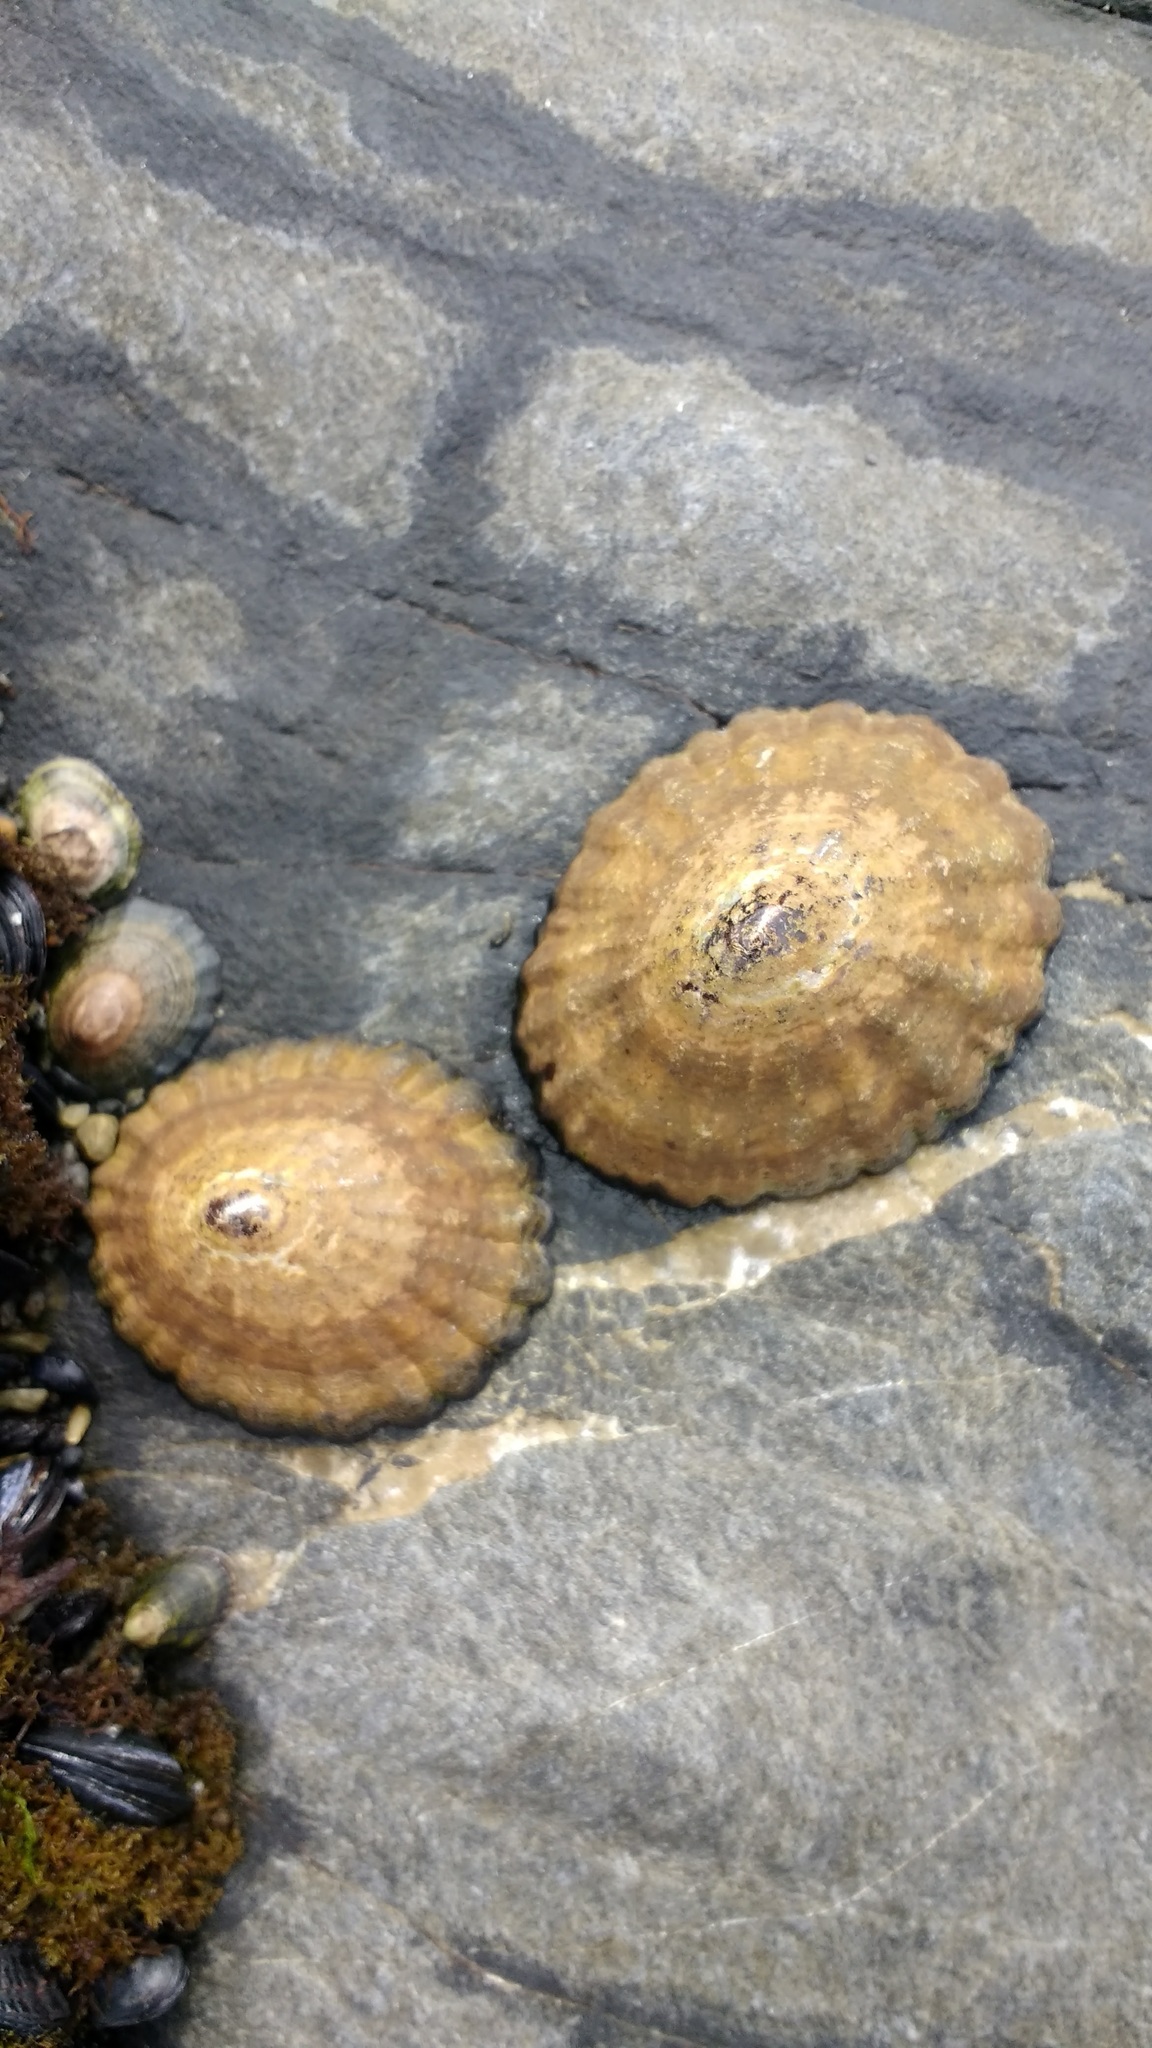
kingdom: Animalia
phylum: Mollusca
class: Gastropoda
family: Nacellidae
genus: Nacella
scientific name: Nacella magellanica
